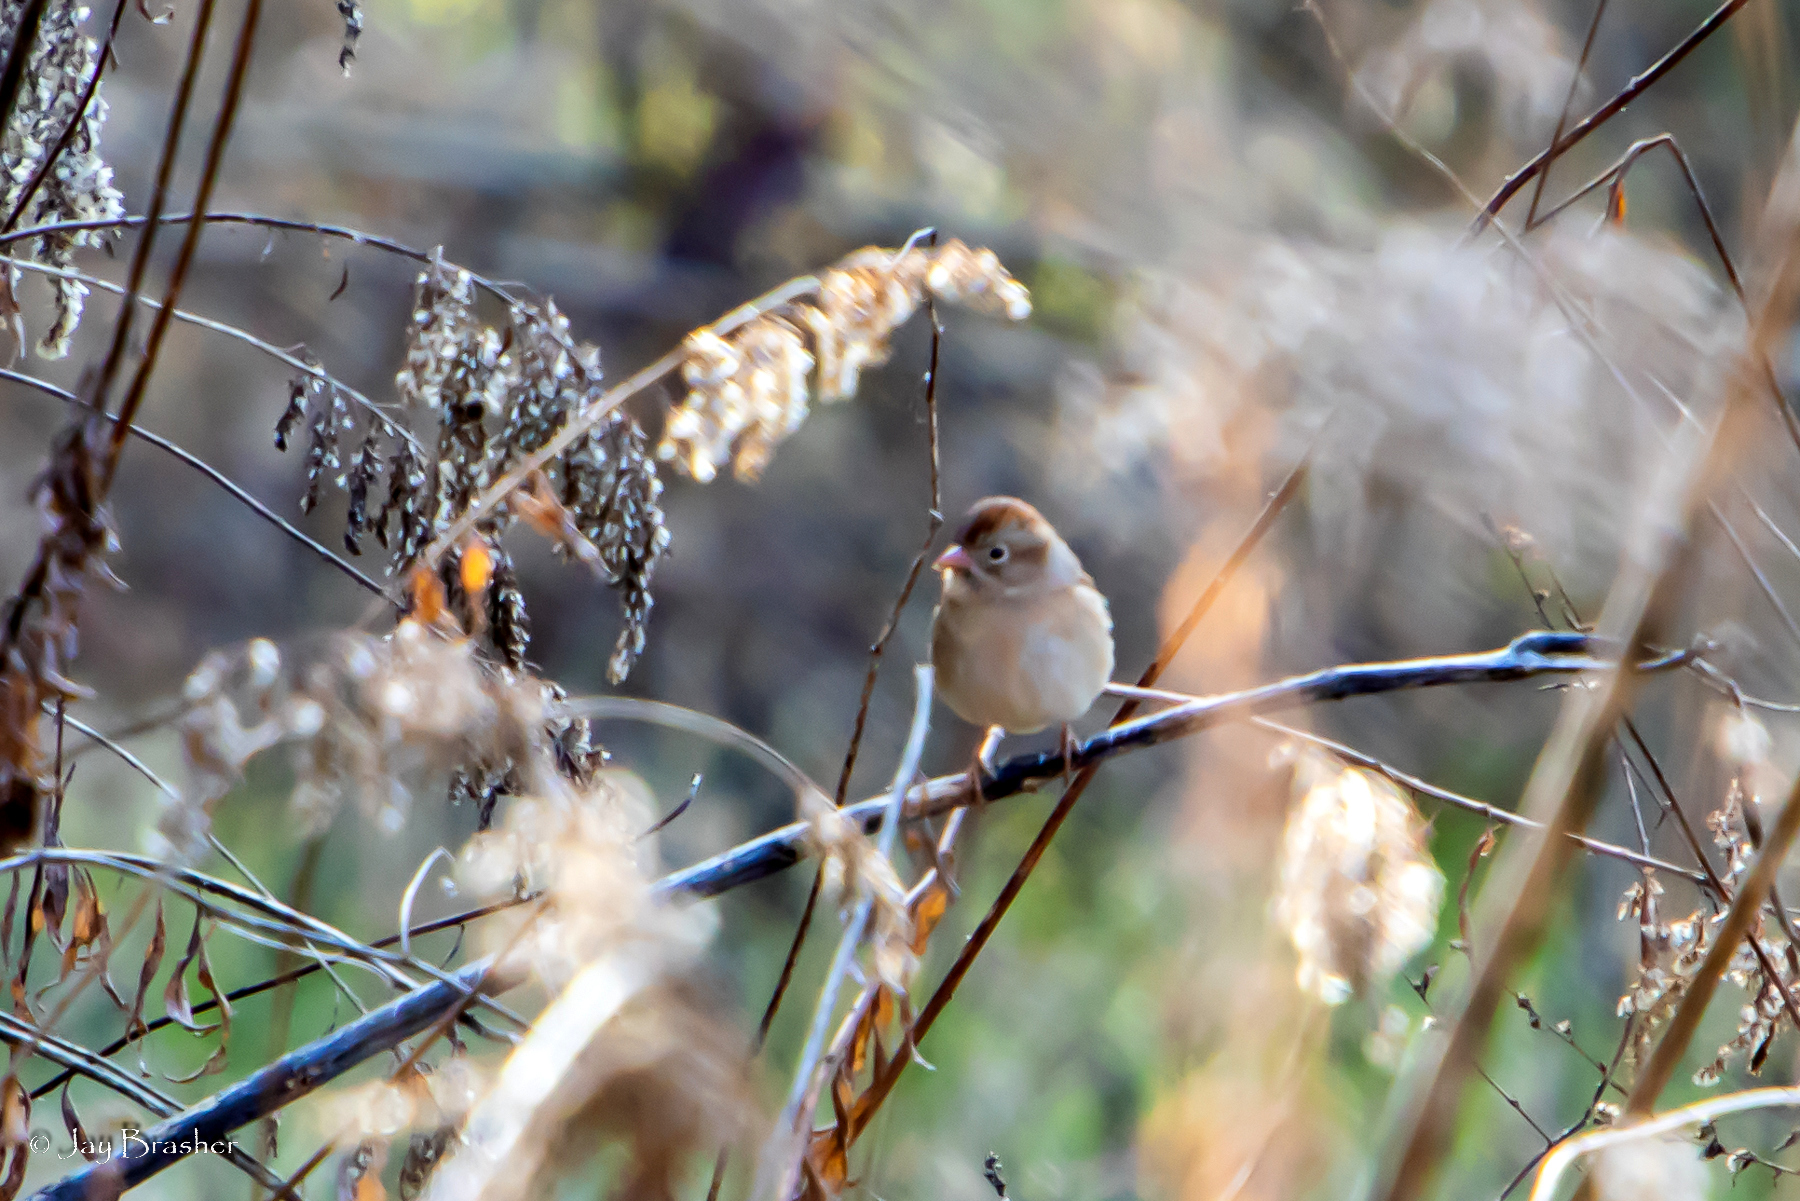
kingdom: Animalia
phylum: Chordata
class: Aves
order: Passeriformes
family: Passerellidae
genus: Spizella
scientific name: Spizella pusilla
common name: Field sparrow
